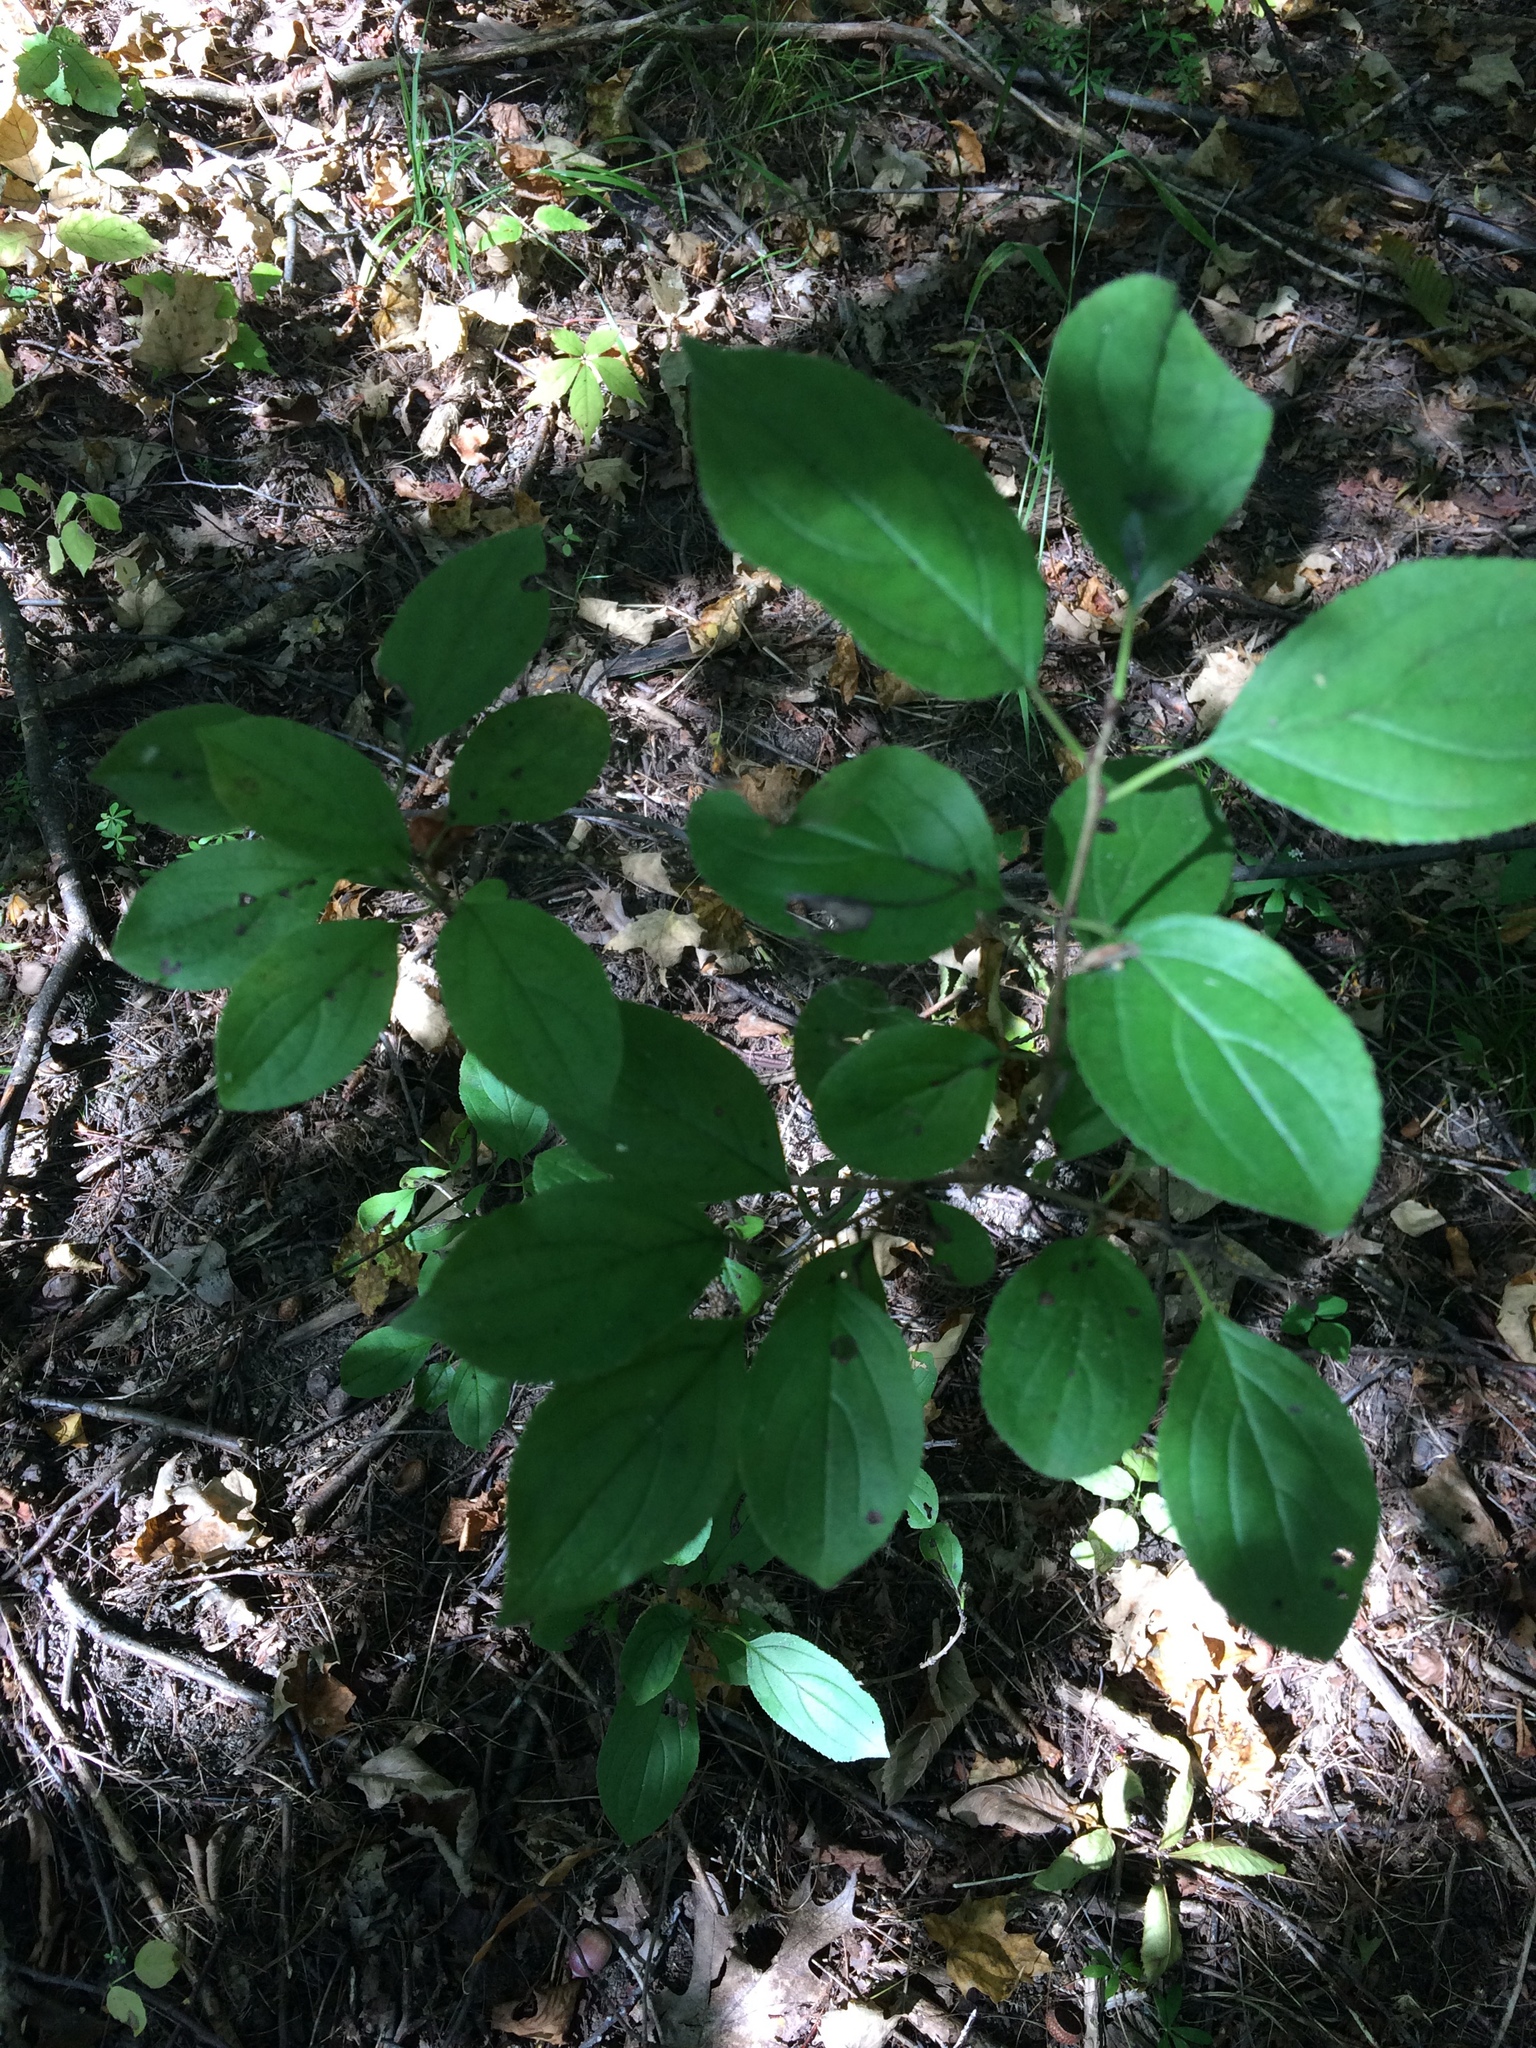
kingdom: Plantae
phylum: Tracheophyta
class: Magnoliopsida
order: Rosales
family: Rhamnaceae
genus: Rhamnus
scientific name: Rhamnus cathartica
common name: Common buckthorn
